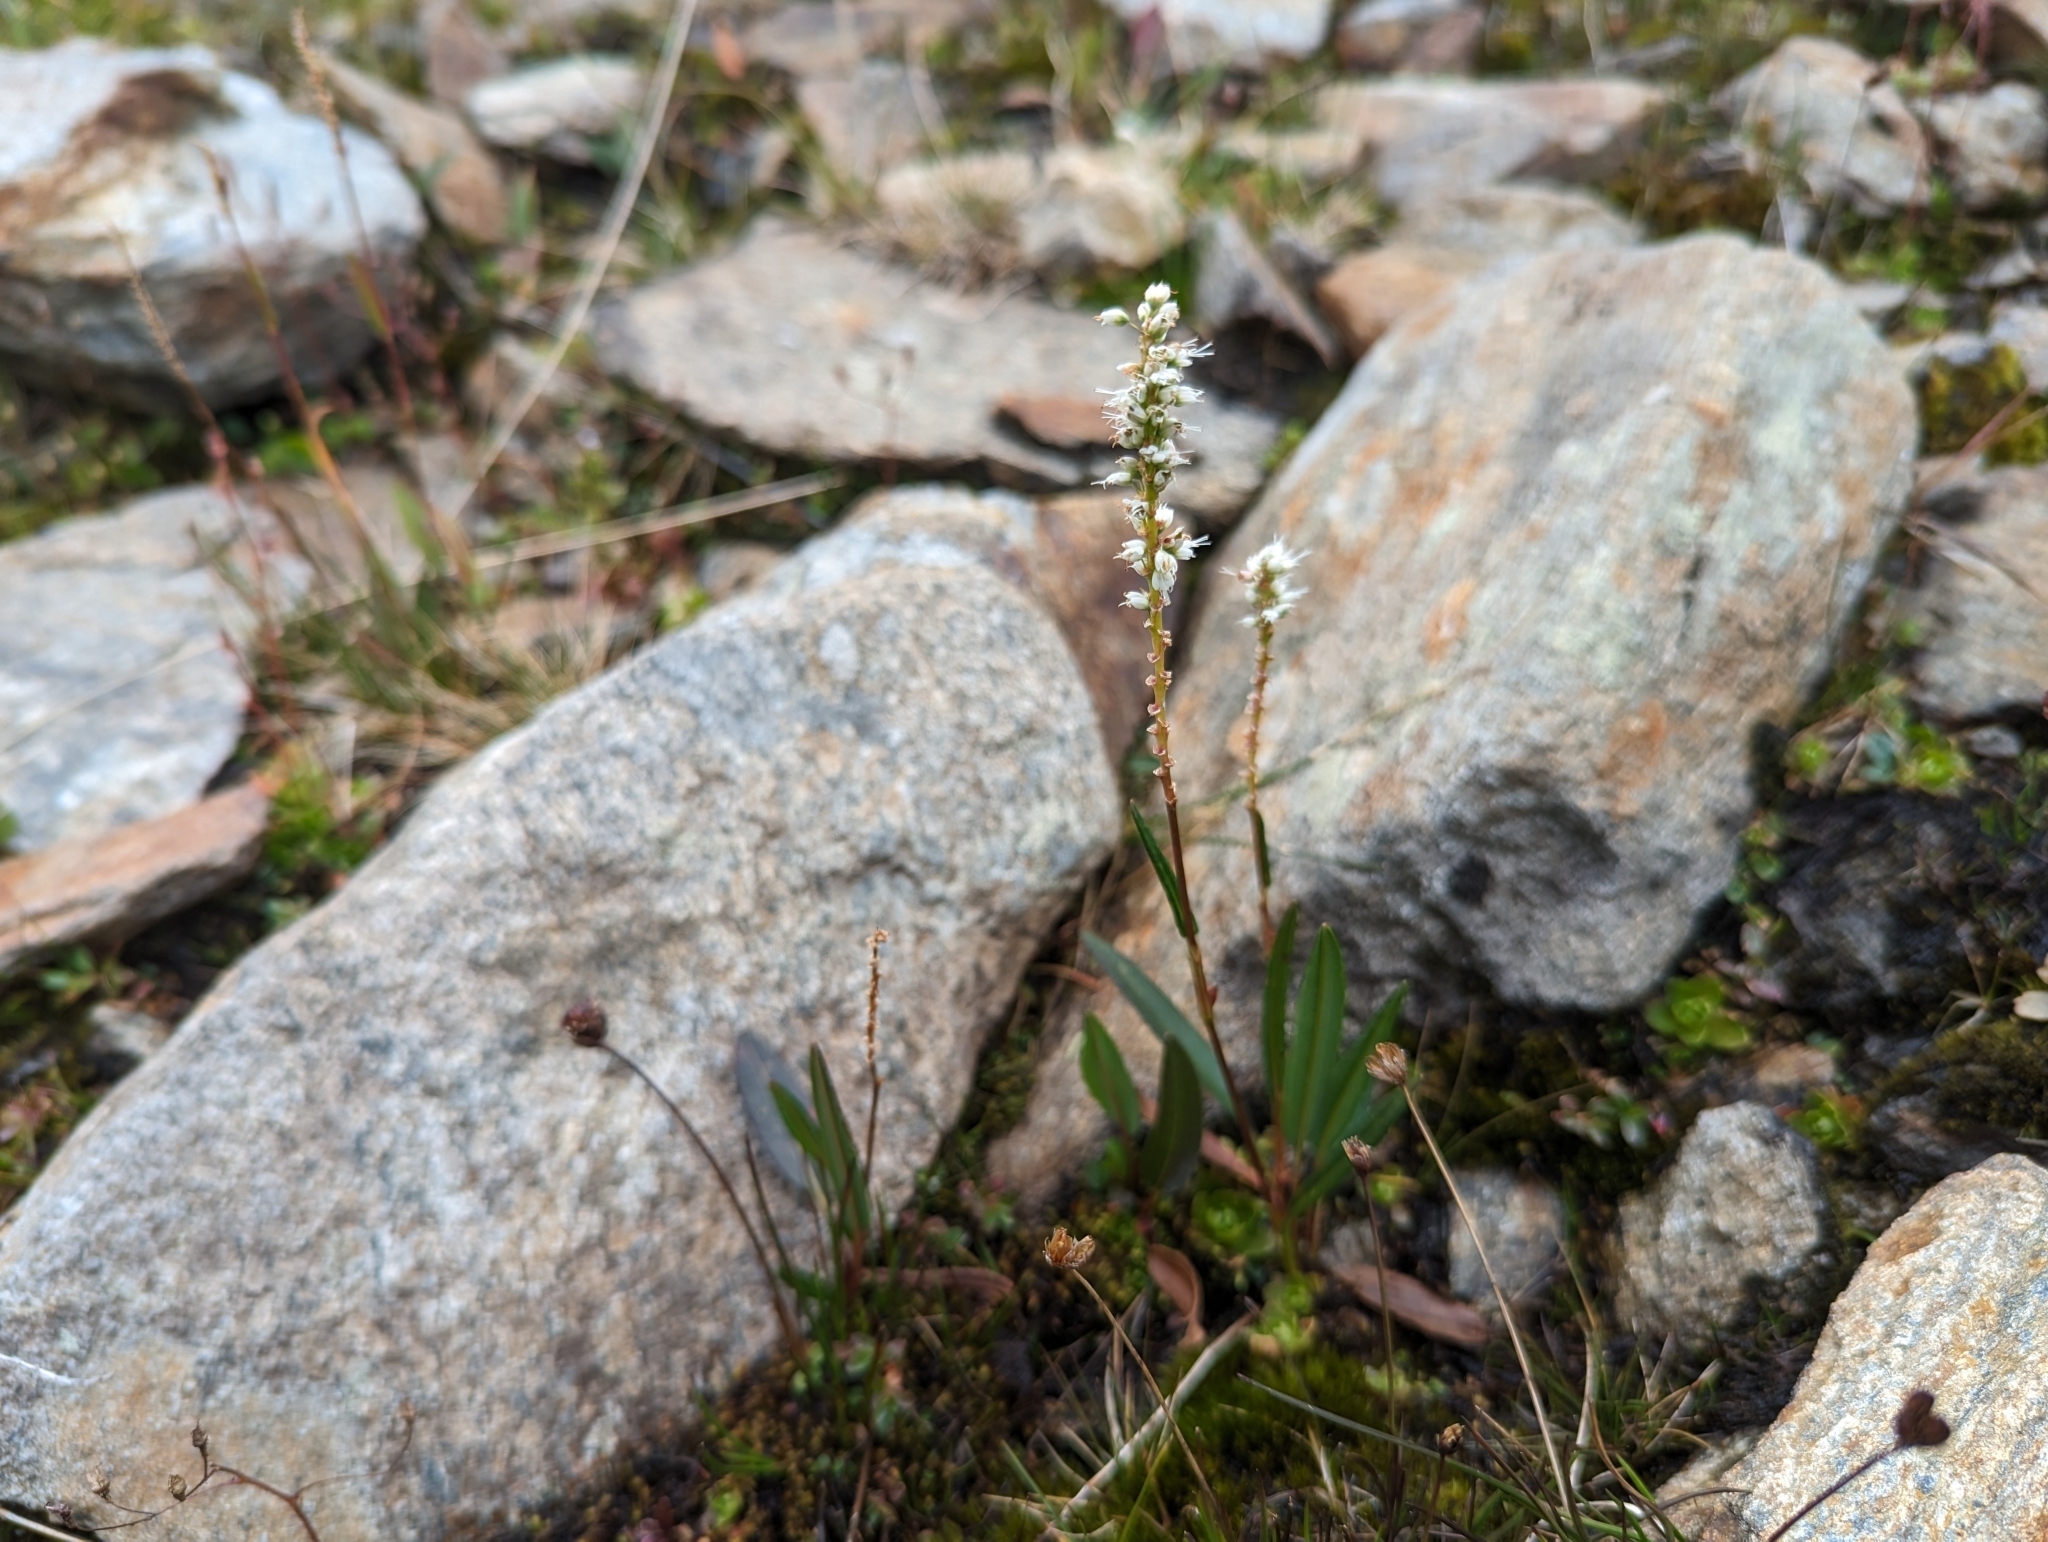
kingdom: Plantae
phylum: Tracheophyta
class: Magnoliopsida
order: Caryophyllales
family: Polygonaceae
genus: Bistorta
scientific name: Bistorta vivipara
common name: Alpine bistort
